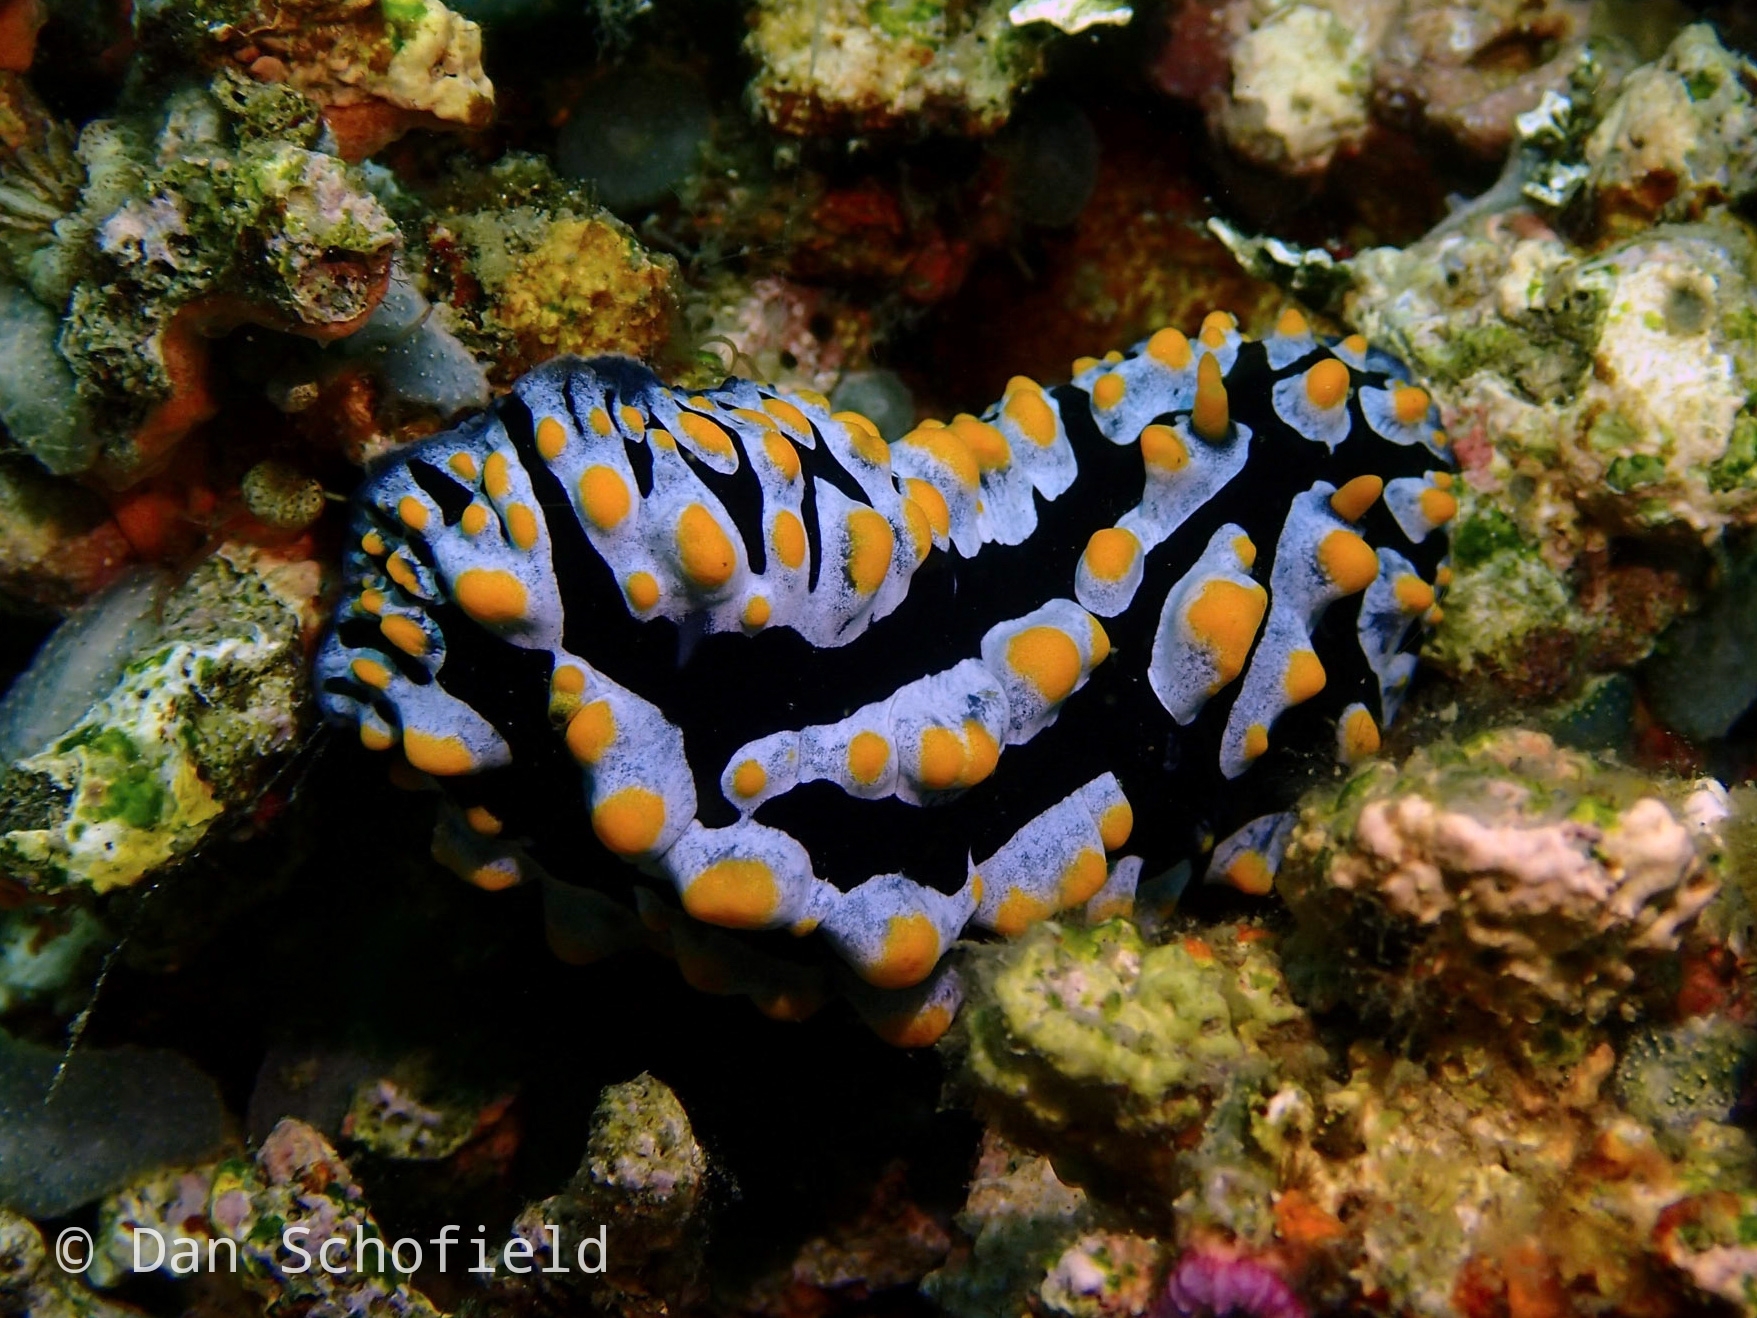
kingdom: Animalia
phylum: Mollusca
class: Gastropoda
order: Nudibranchia
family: Phyllidiidae
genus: Phyllidia
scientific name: Phyllidia varicosa
